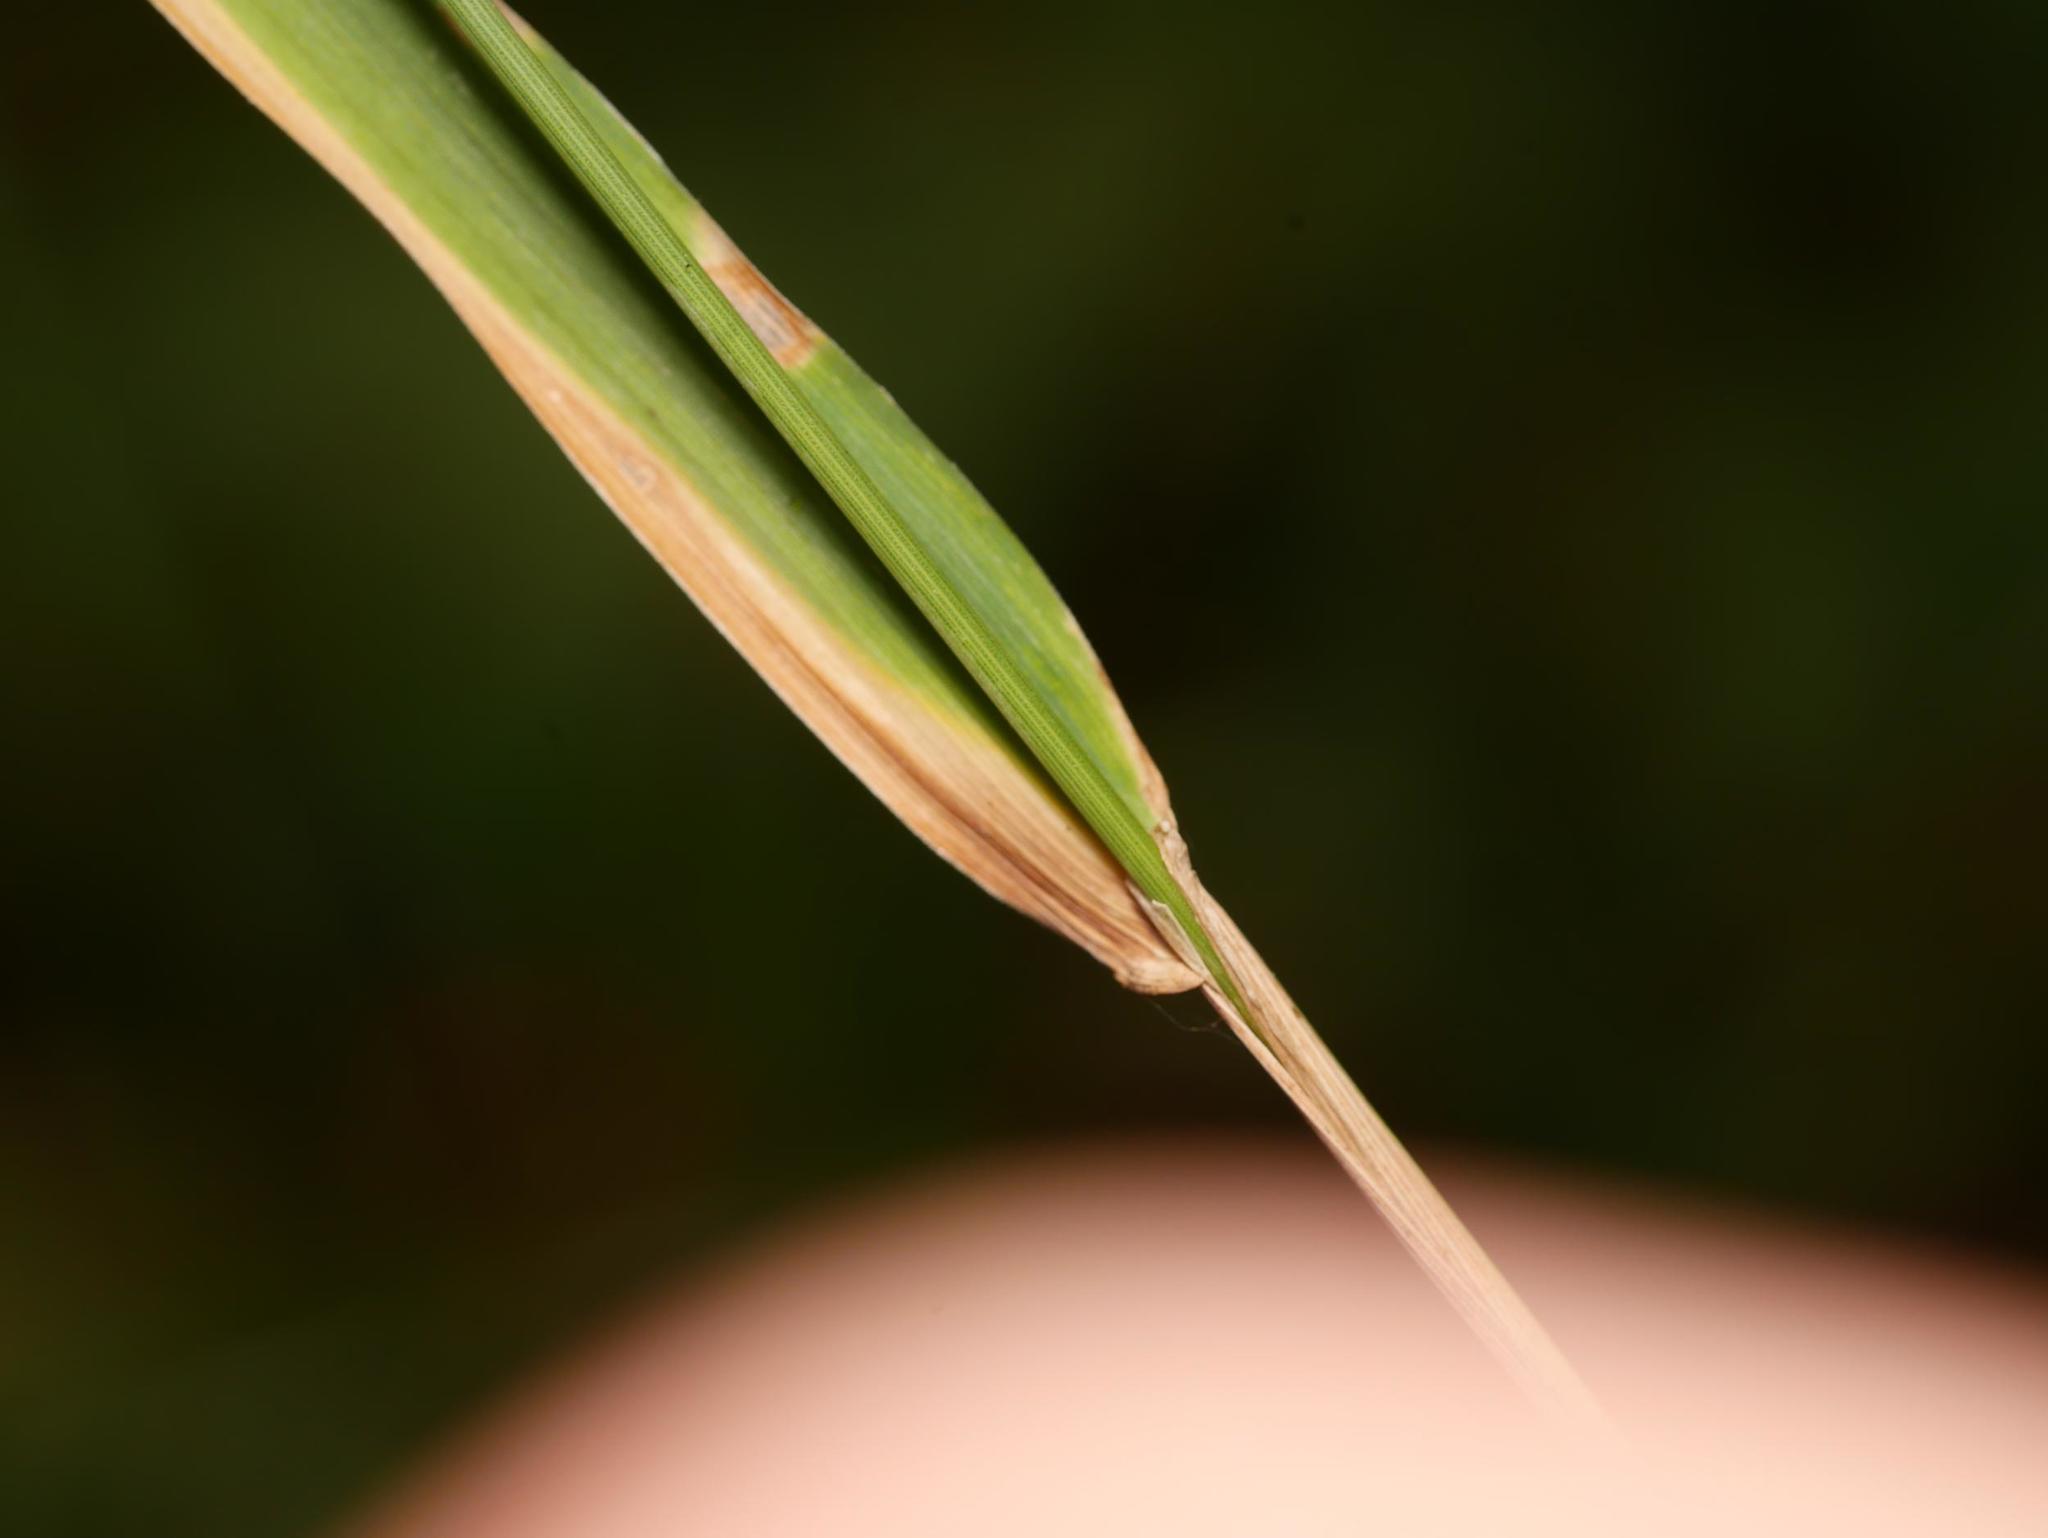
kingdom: Plantae
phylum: Tracheophyta
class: Liliopsida
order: Poales
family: Poaceae
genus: Phleum
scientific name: Phleum pratense
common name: Timothy grass
